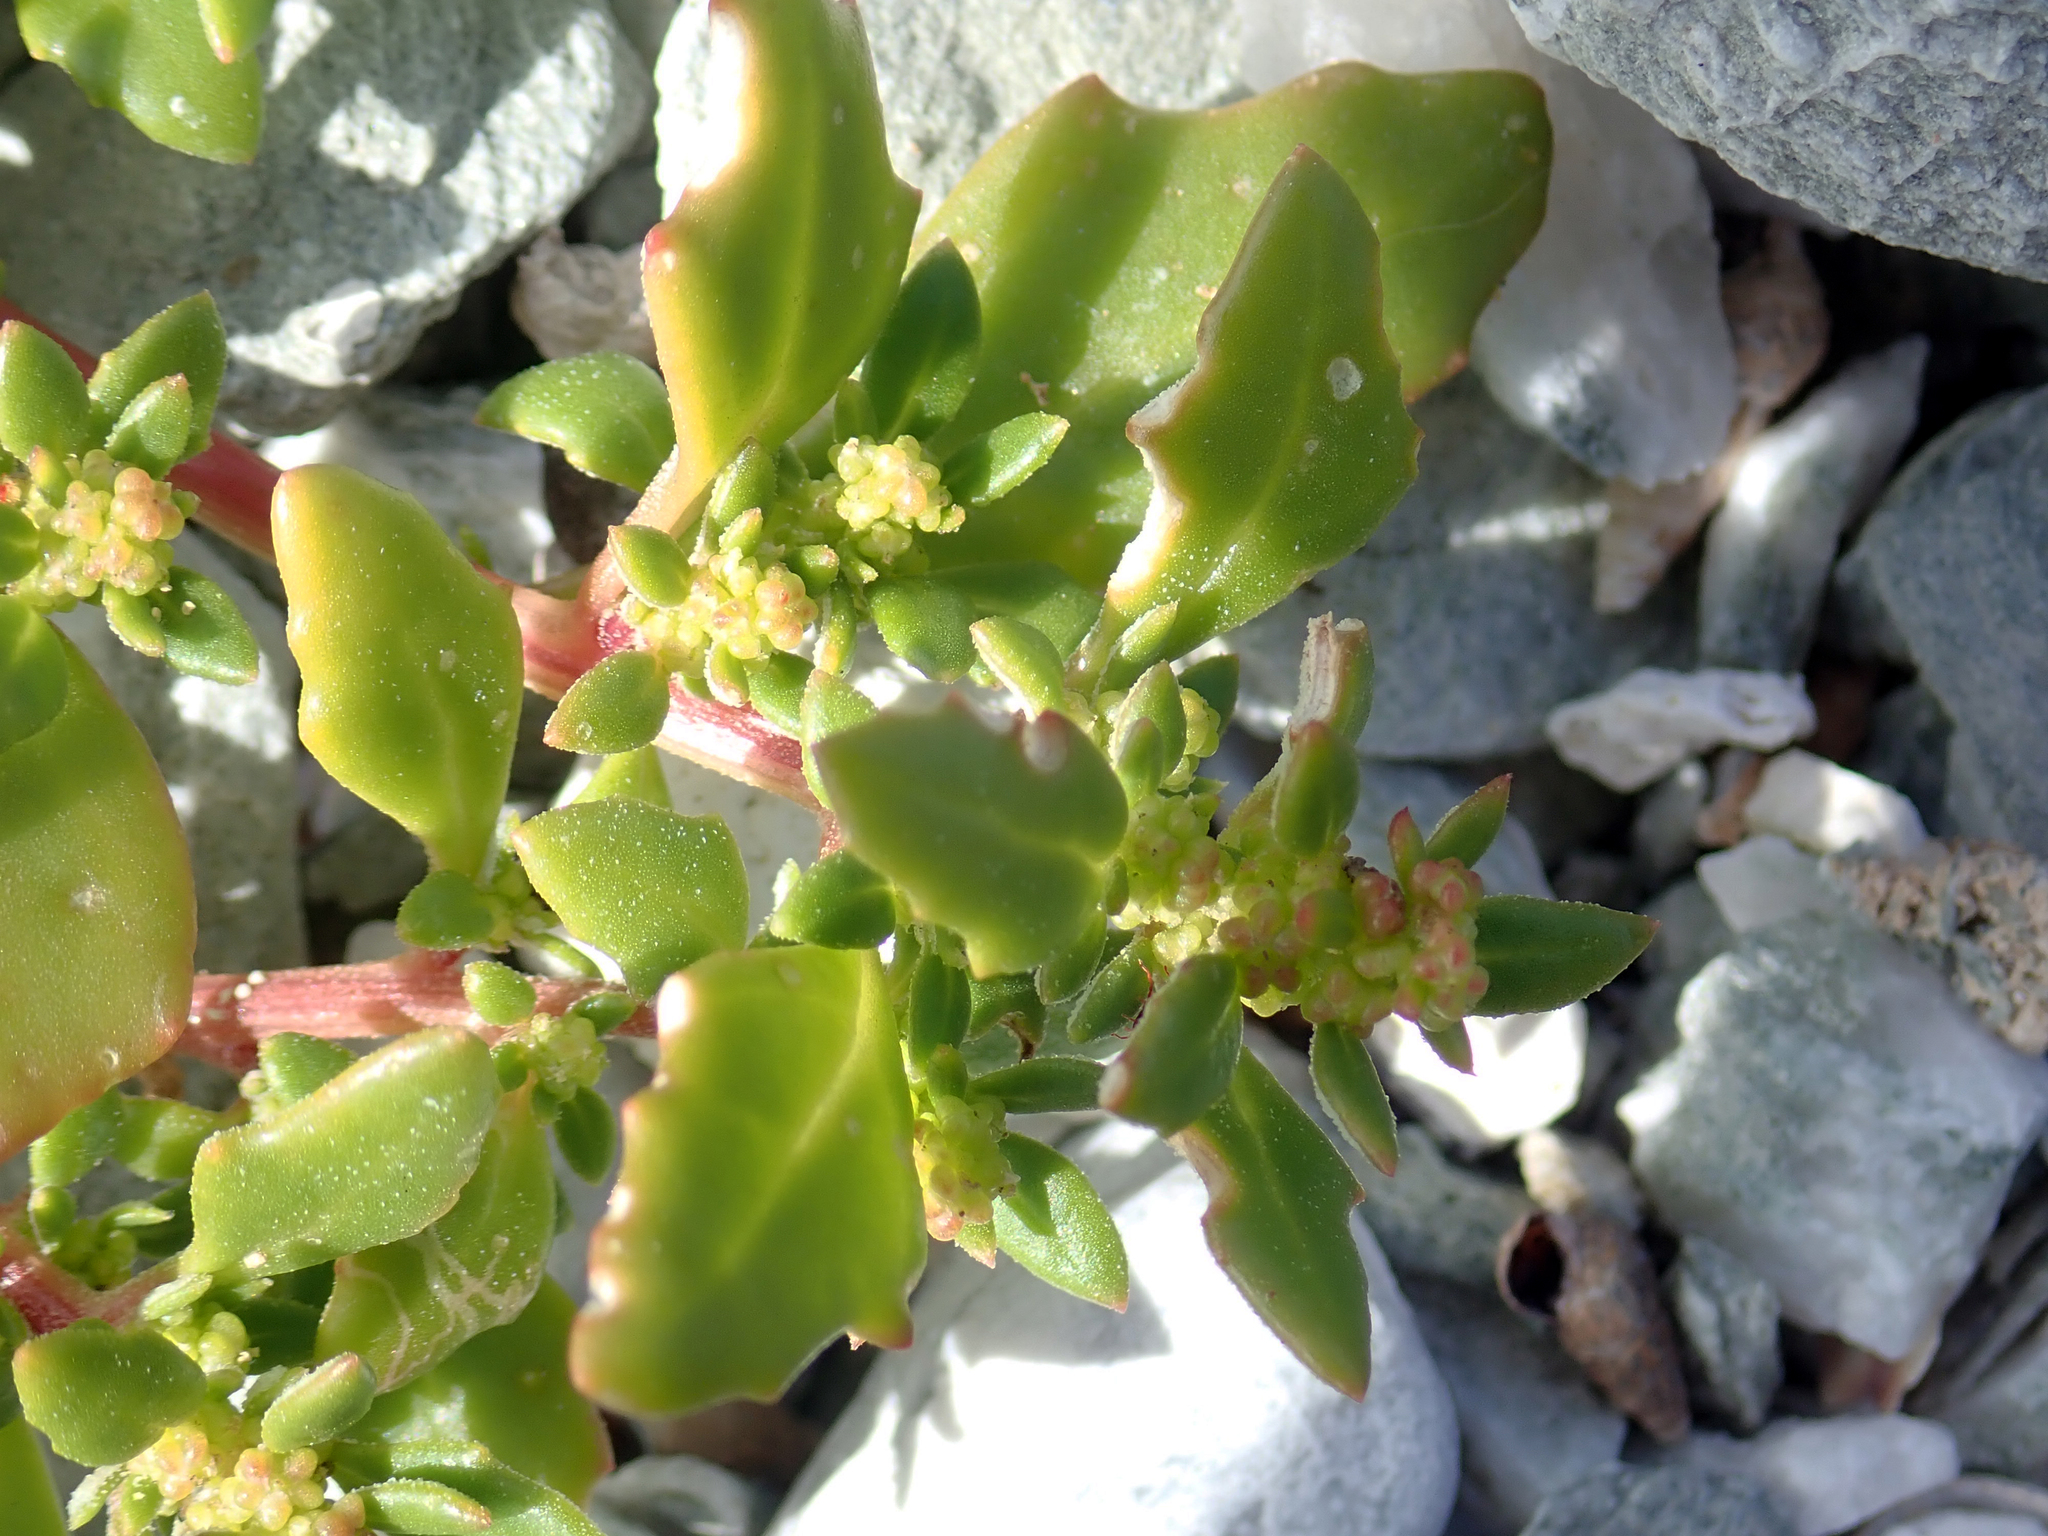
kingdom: Plantae
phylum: Tracheophyta
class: Magnoliopsida
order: Caryophyllales
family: Amaranthaceae
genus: Oxybasis
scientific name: Oxybasis ambigua
